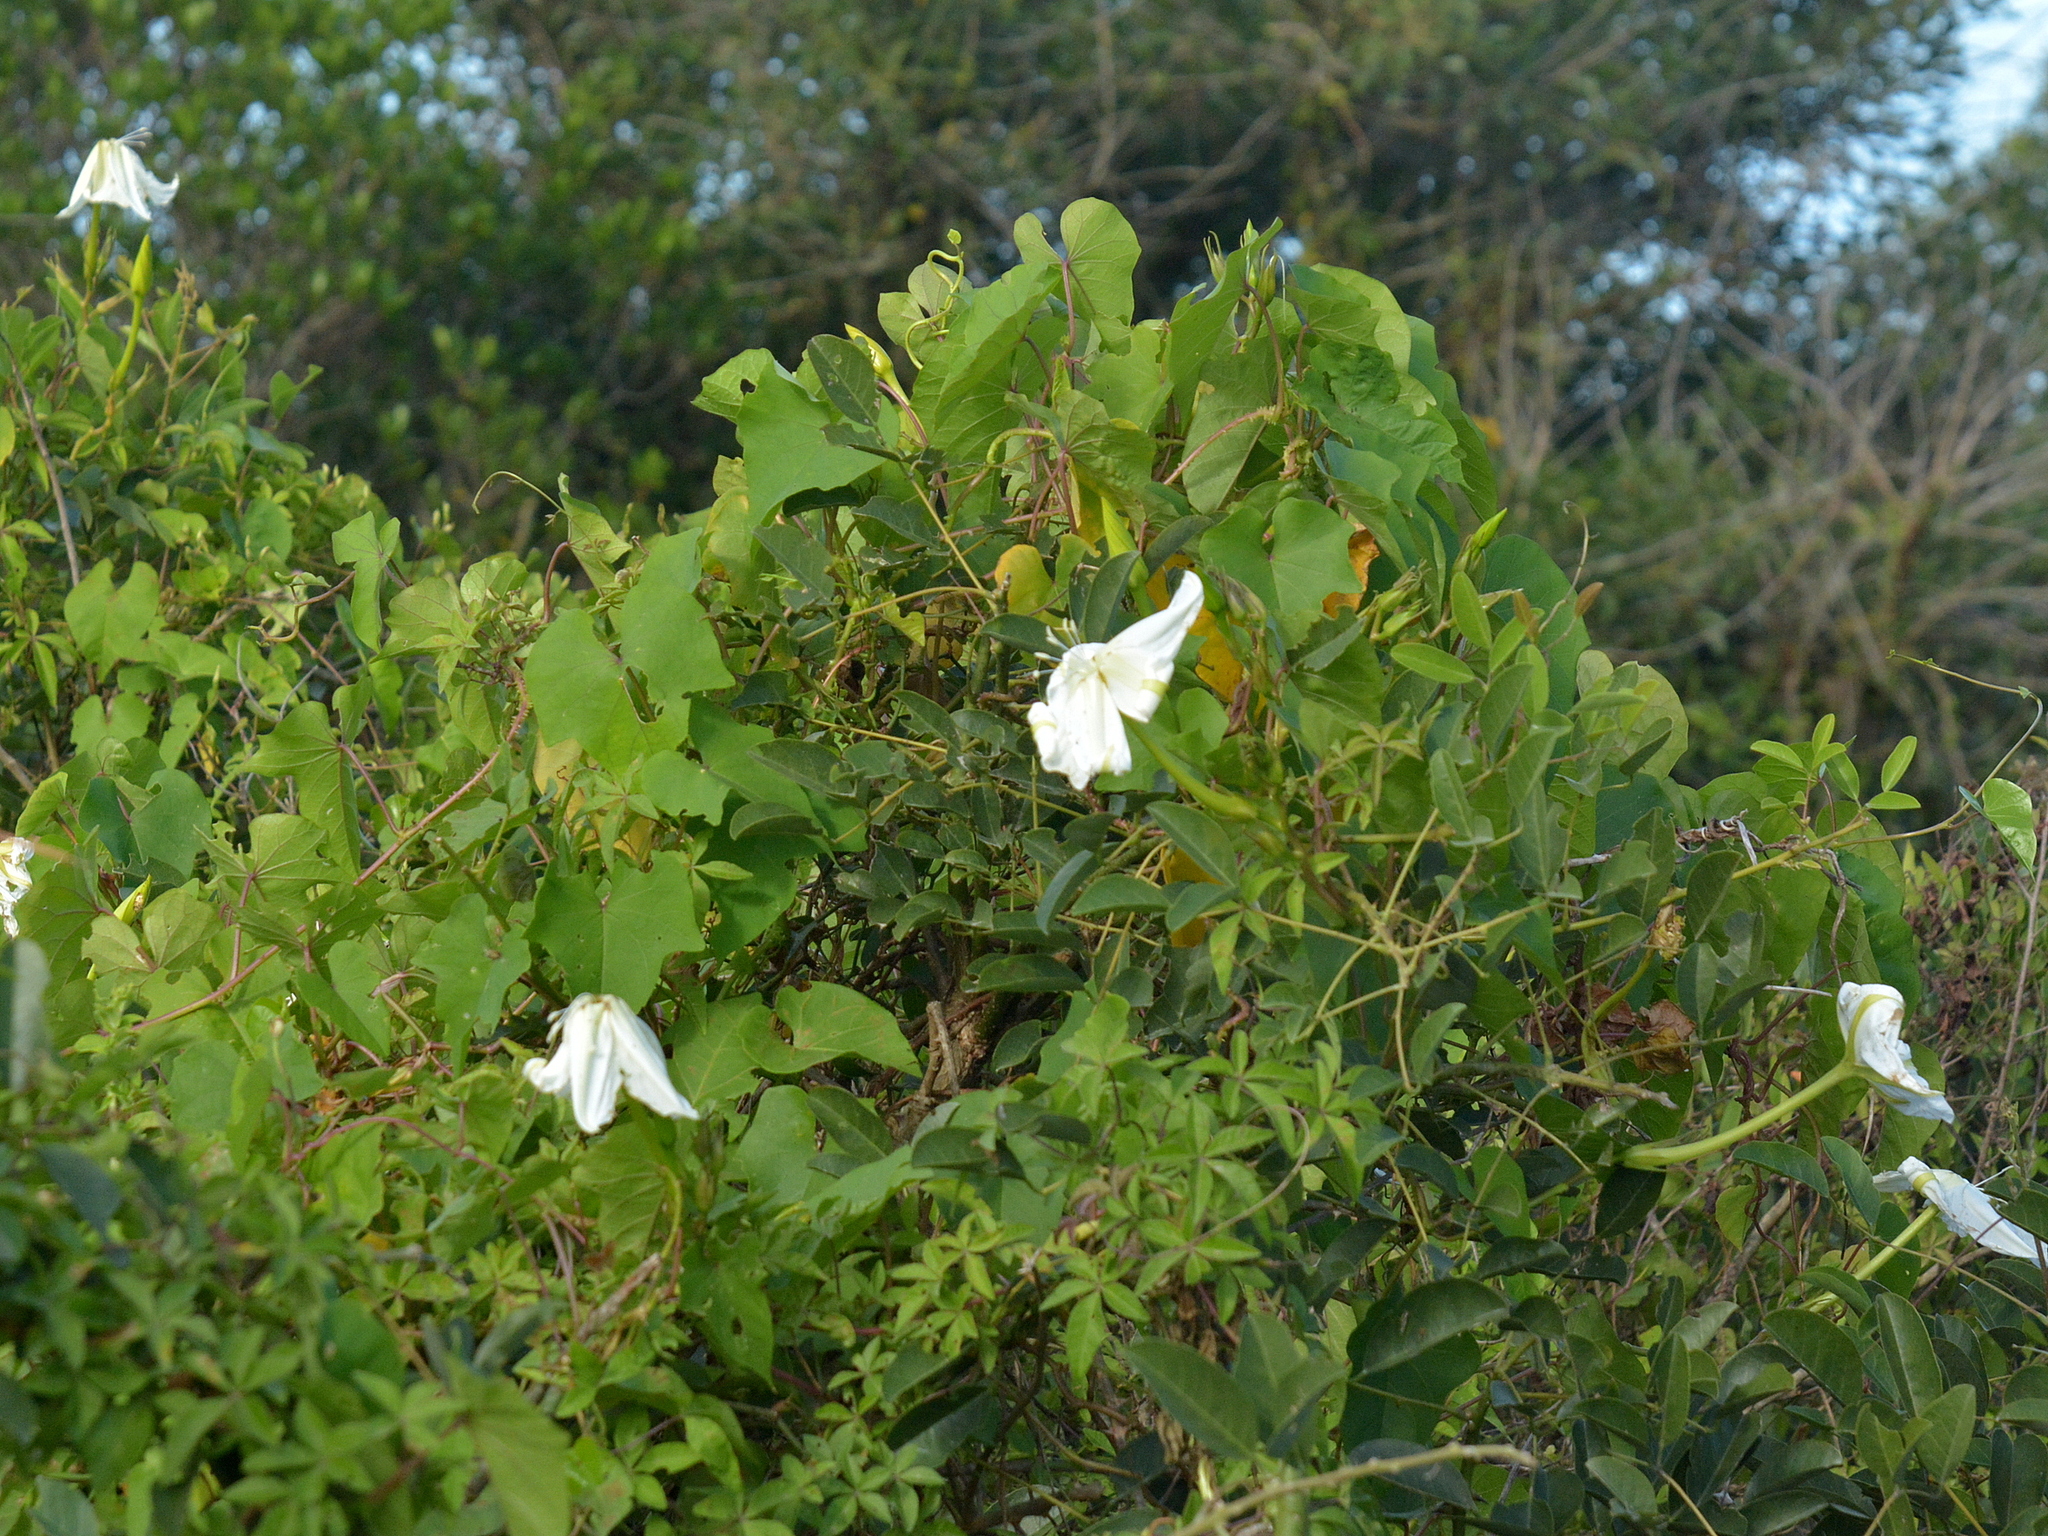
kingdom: Plantae
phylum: Tracheophyta
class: Magnoliopsida
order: Solanales
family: Convolvulaceae
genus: Ipomoea
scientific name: Ipomoea alba
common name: Moonflower
